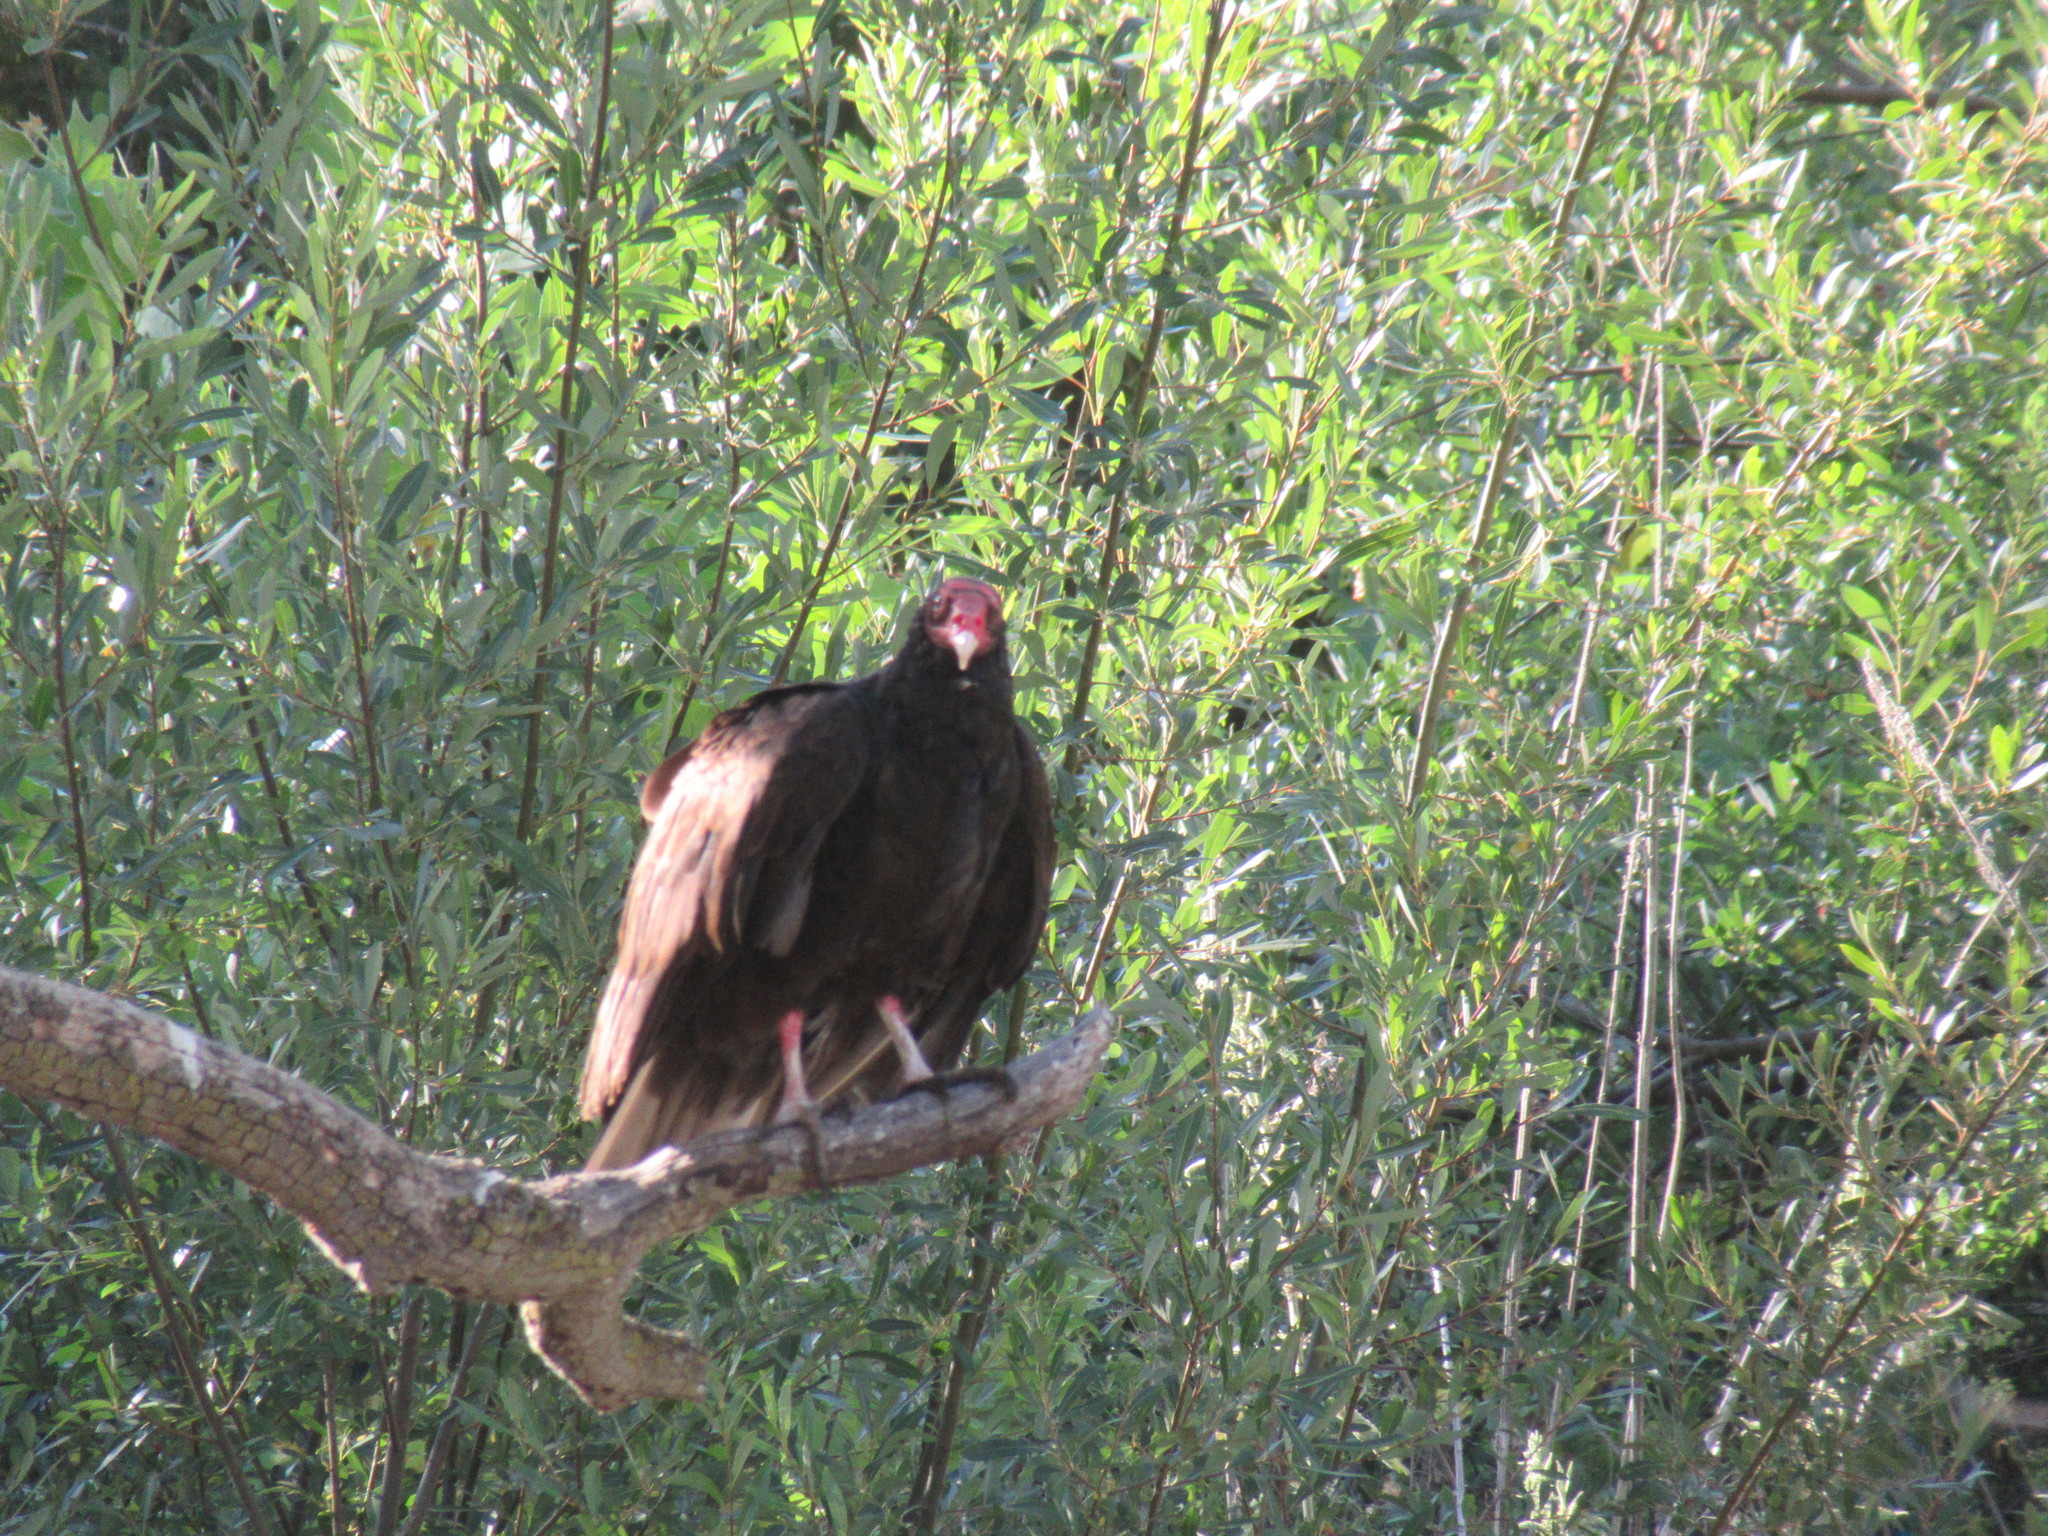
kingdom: Animalia
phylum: Chordata
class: Aves
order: Accipitriformes
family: Cathartidae
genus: Cathartes
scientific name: Cathartes aura
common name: Turkey vulture
